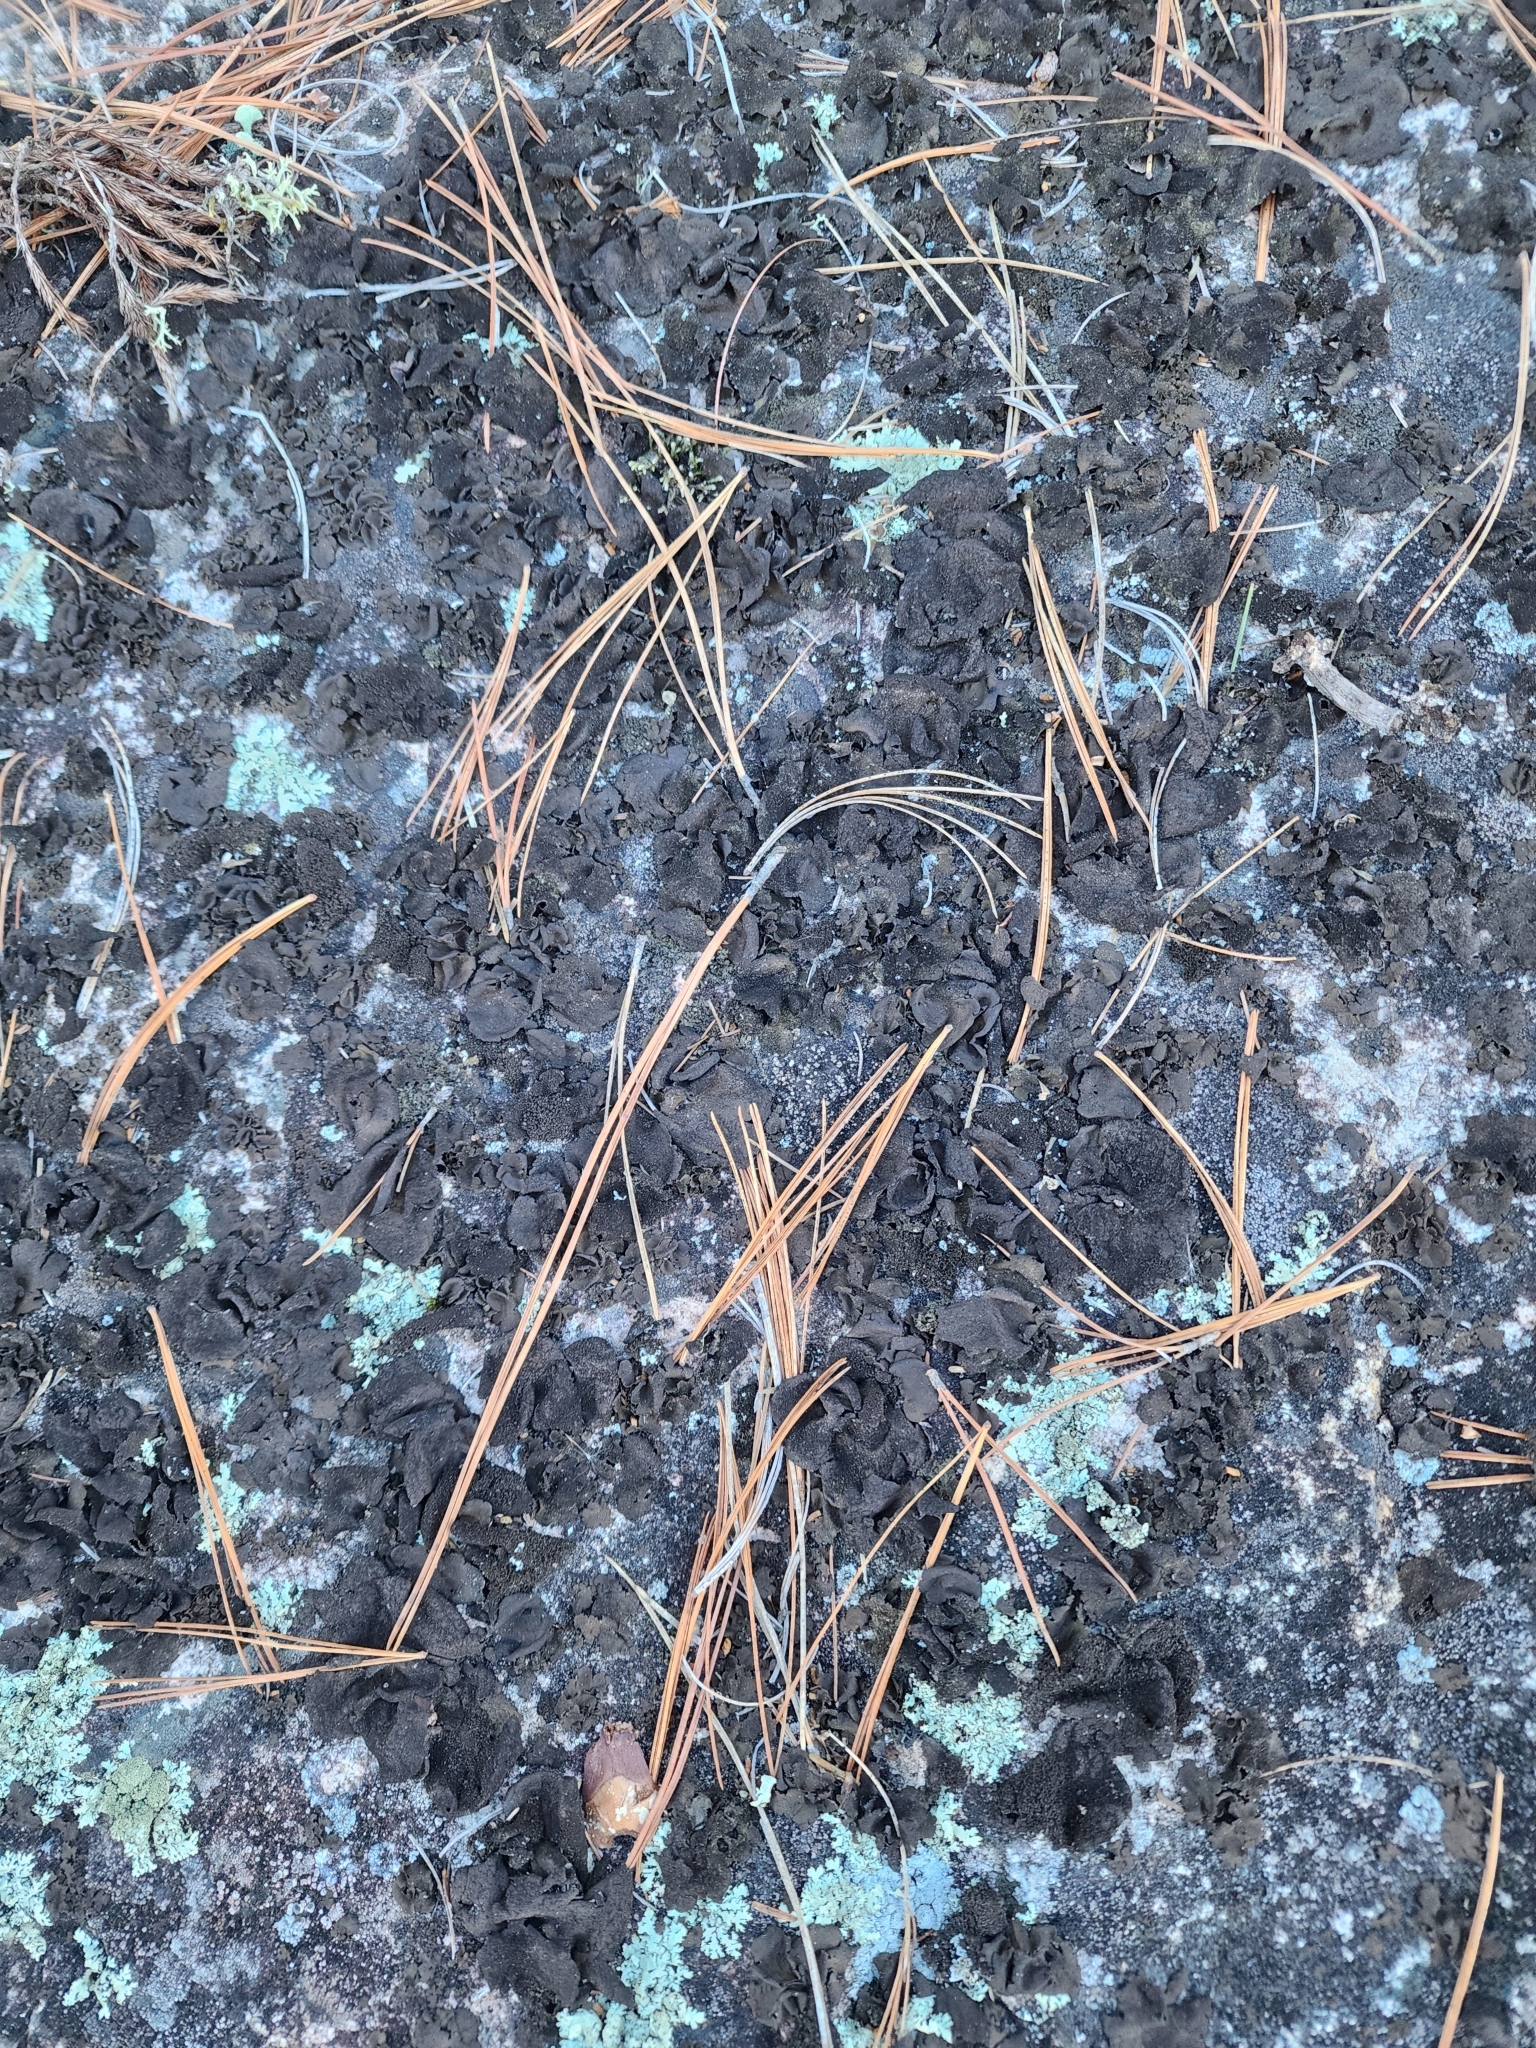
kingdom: Fungi
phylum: Ascomycota
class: Lecanoromycetes
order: Umbilicariales
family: Umbilicariaceae
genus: Umbilicaria
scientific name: Umbilicaria deusta
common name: Peppered rock tripe
